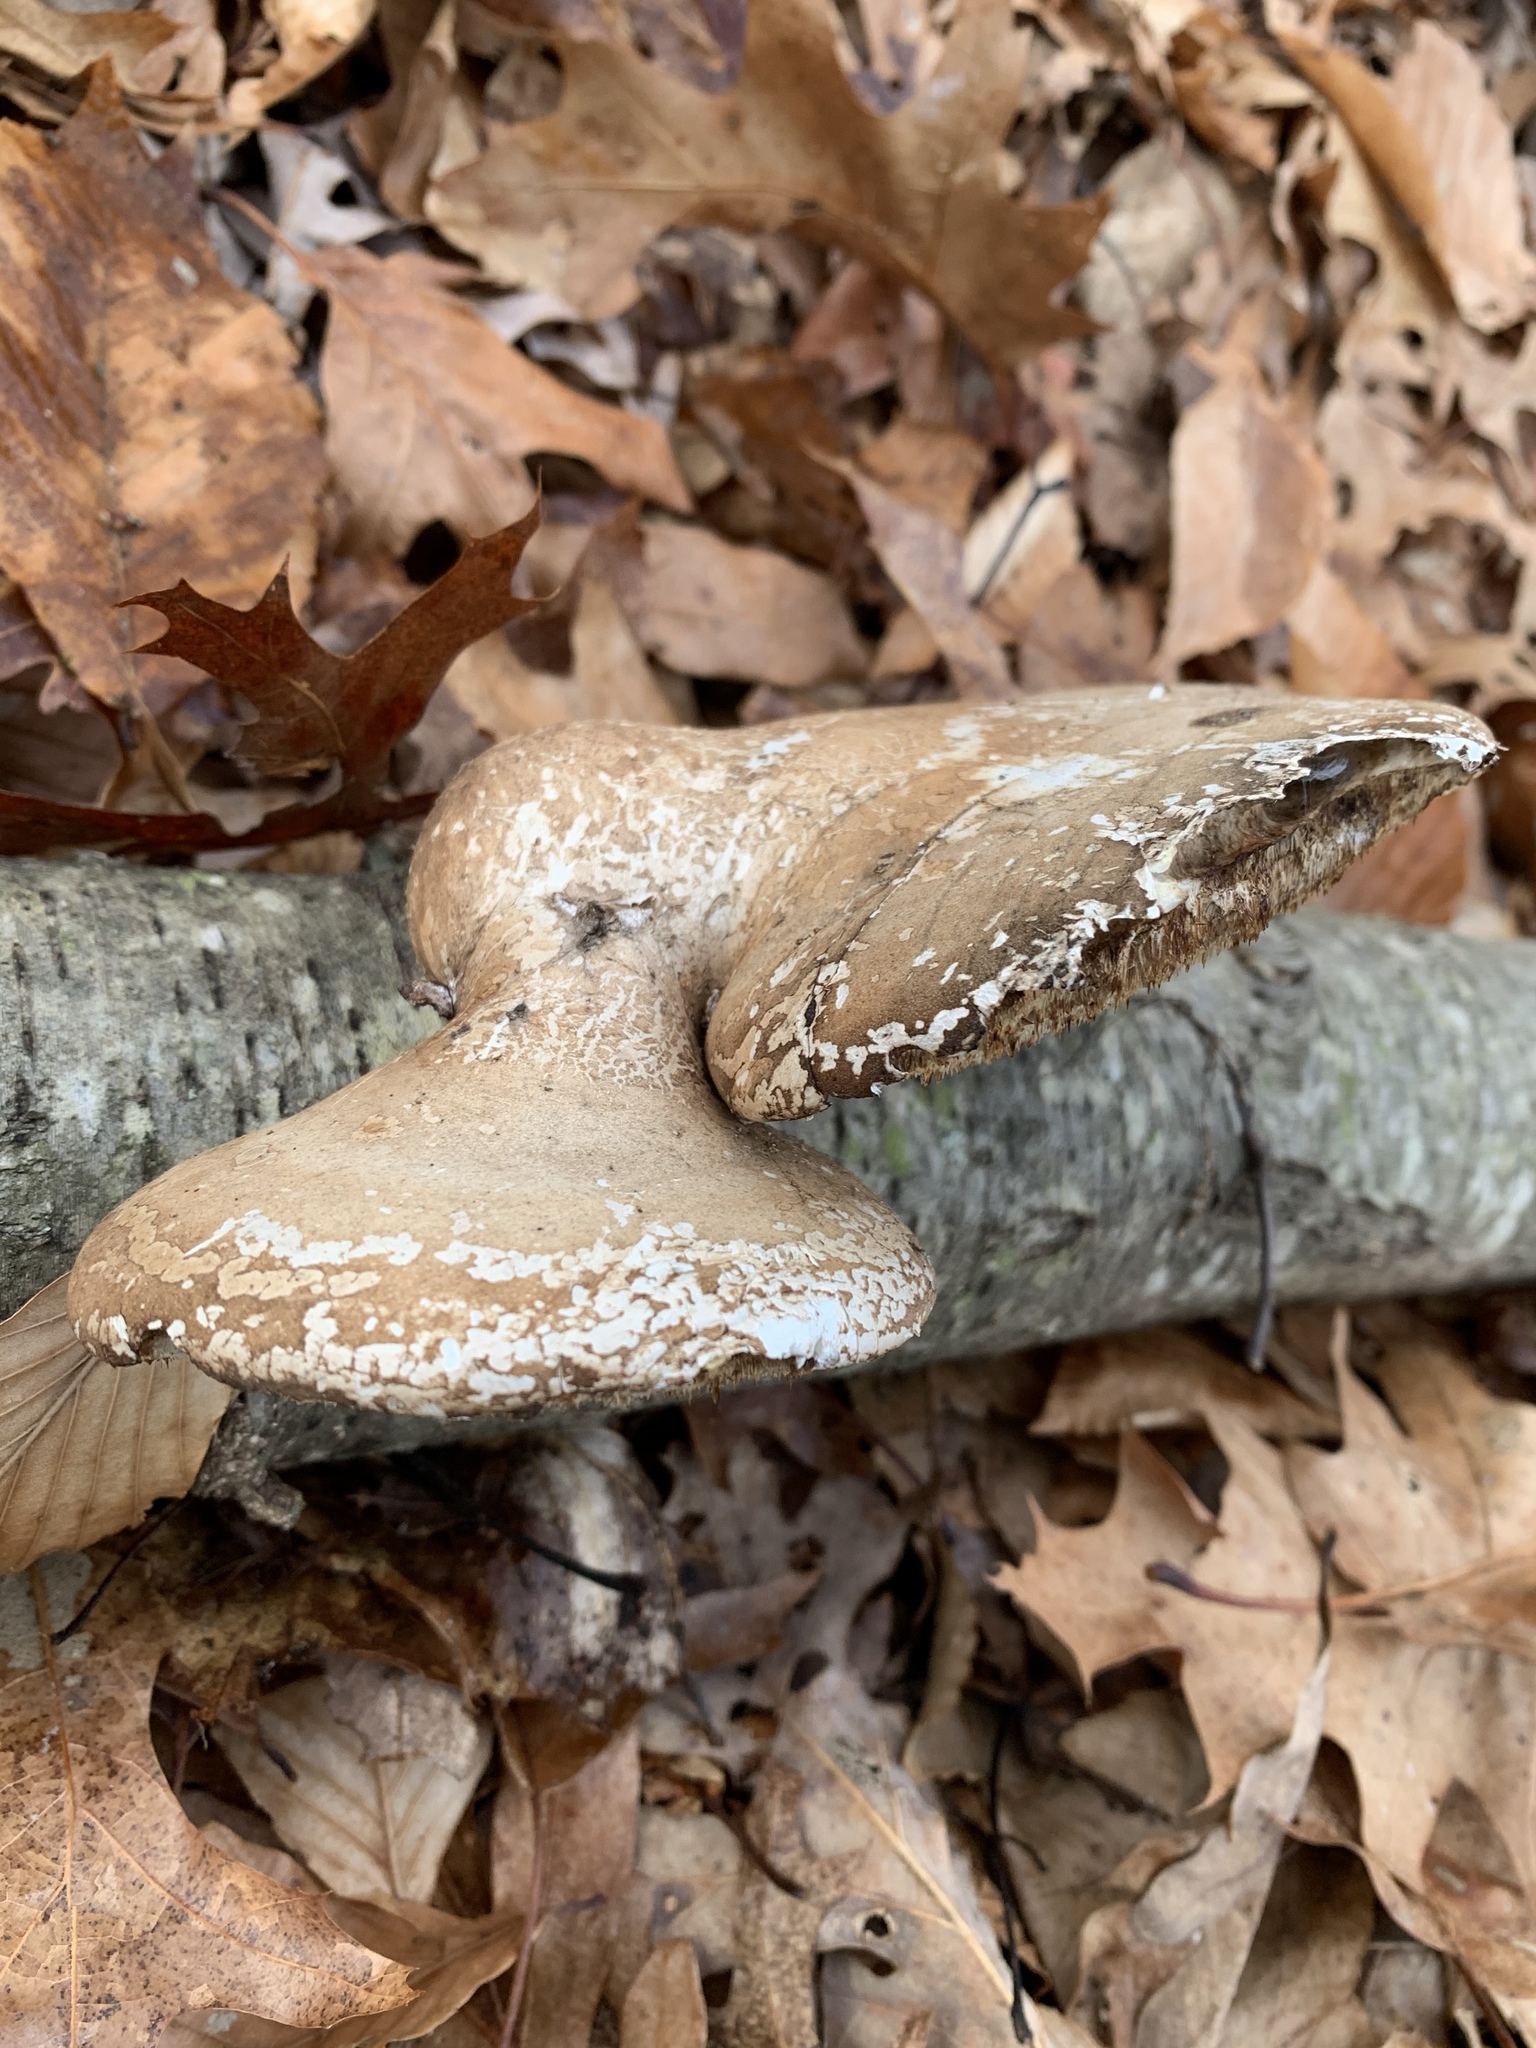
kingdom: Fungi
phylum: Basidiomycota
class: Agaricomycetes
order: Polyporales
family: Fomitopsidaceae
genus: Fomitopsis
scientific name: Fomitopsis betulina
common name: Birch polypore
